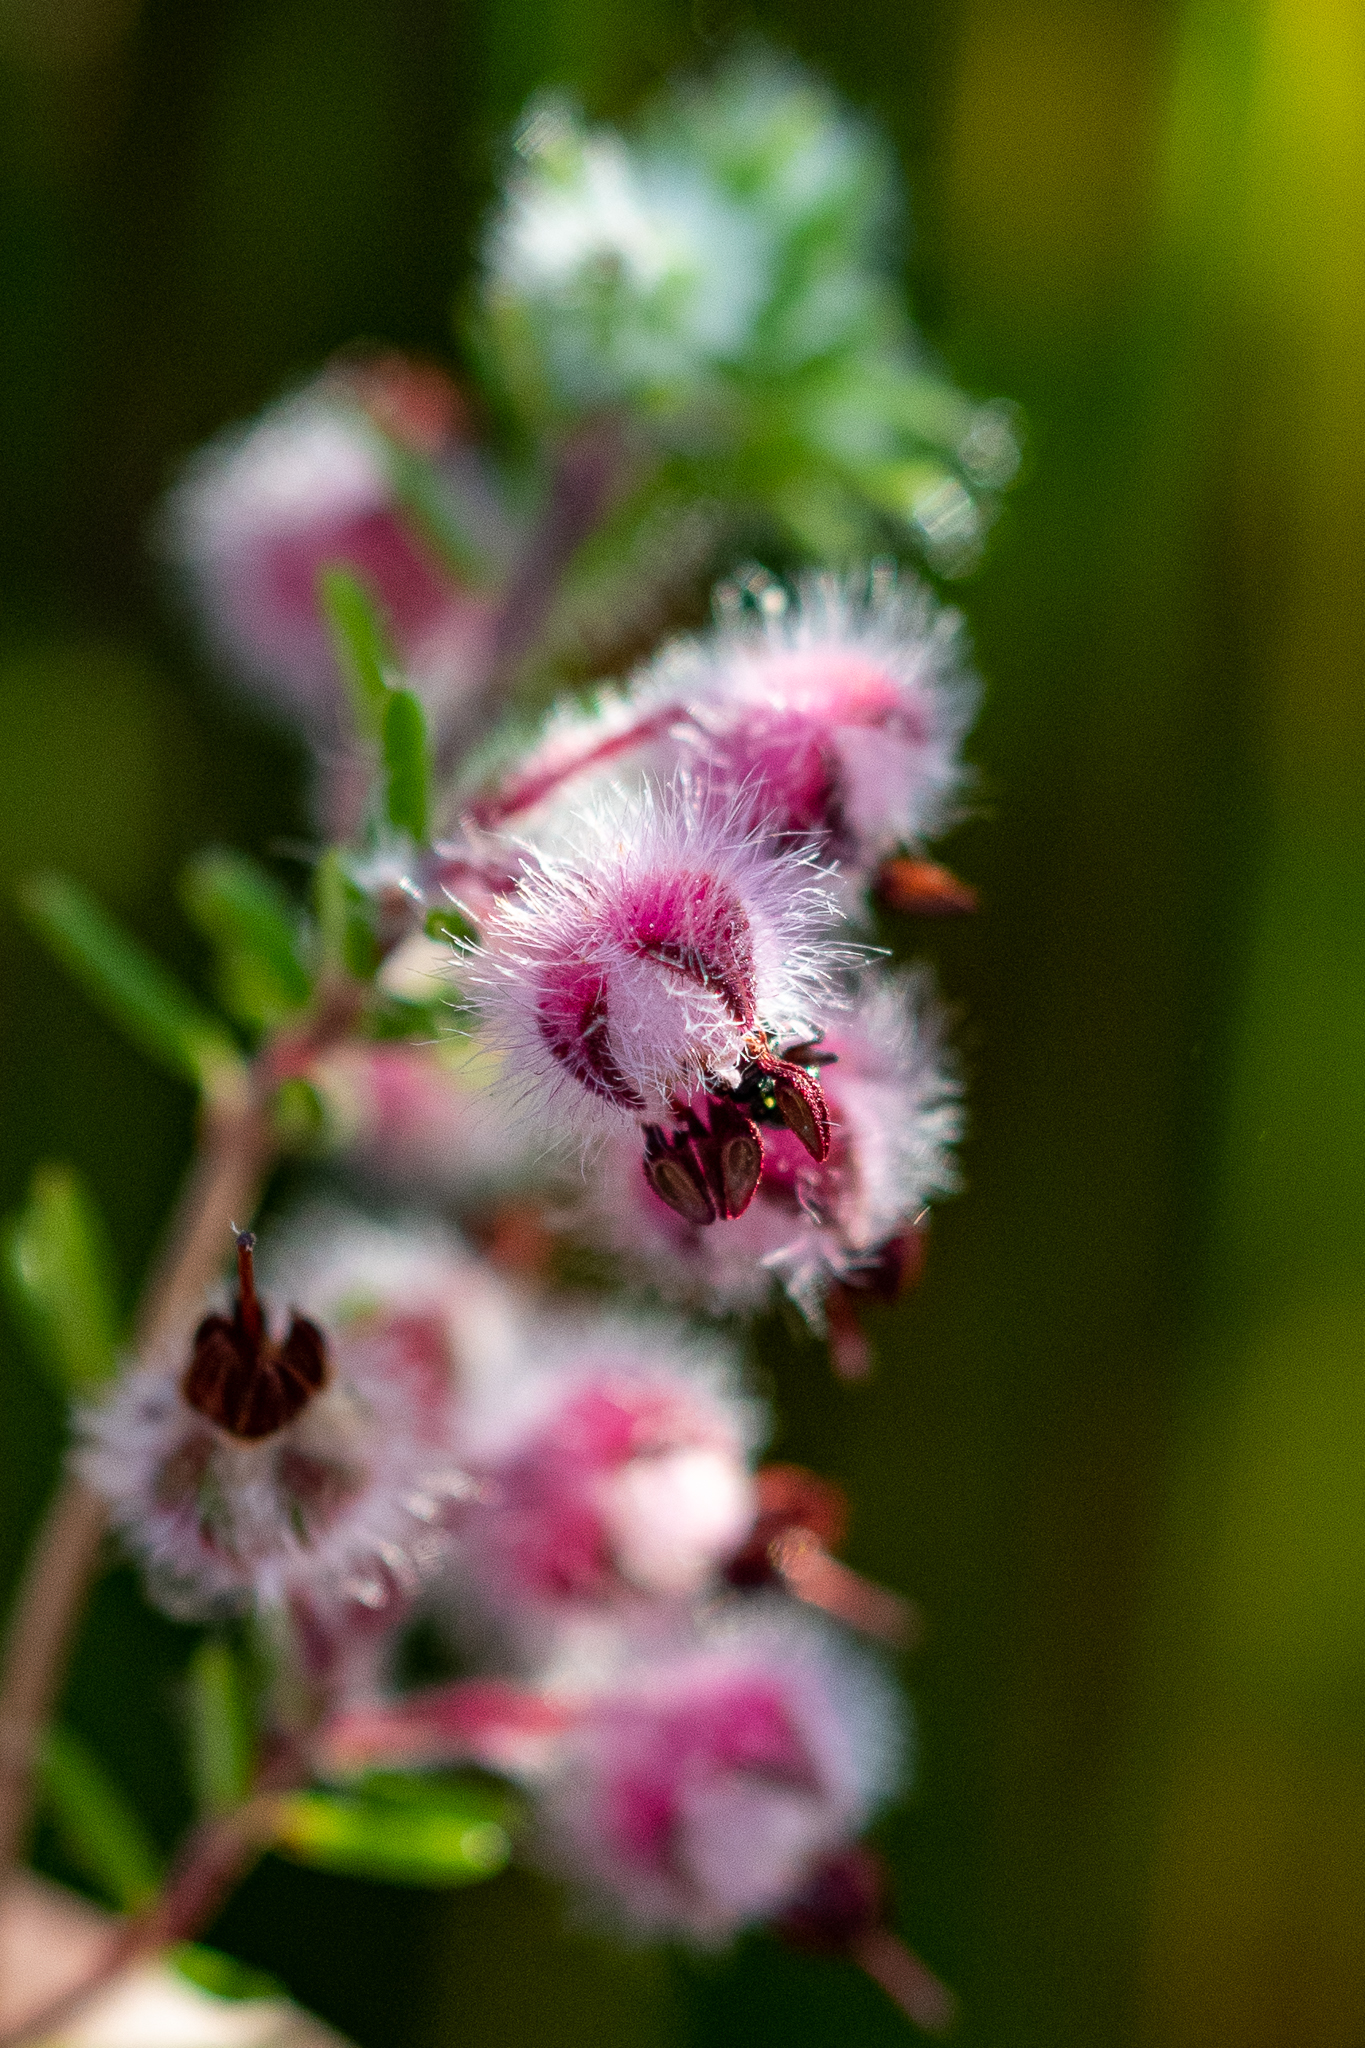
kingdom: Plantae
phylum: Tracheophyta
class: Magnoliopsida
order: Ericales
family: Ericaceae
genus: Erica
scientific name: Erica bruniades
